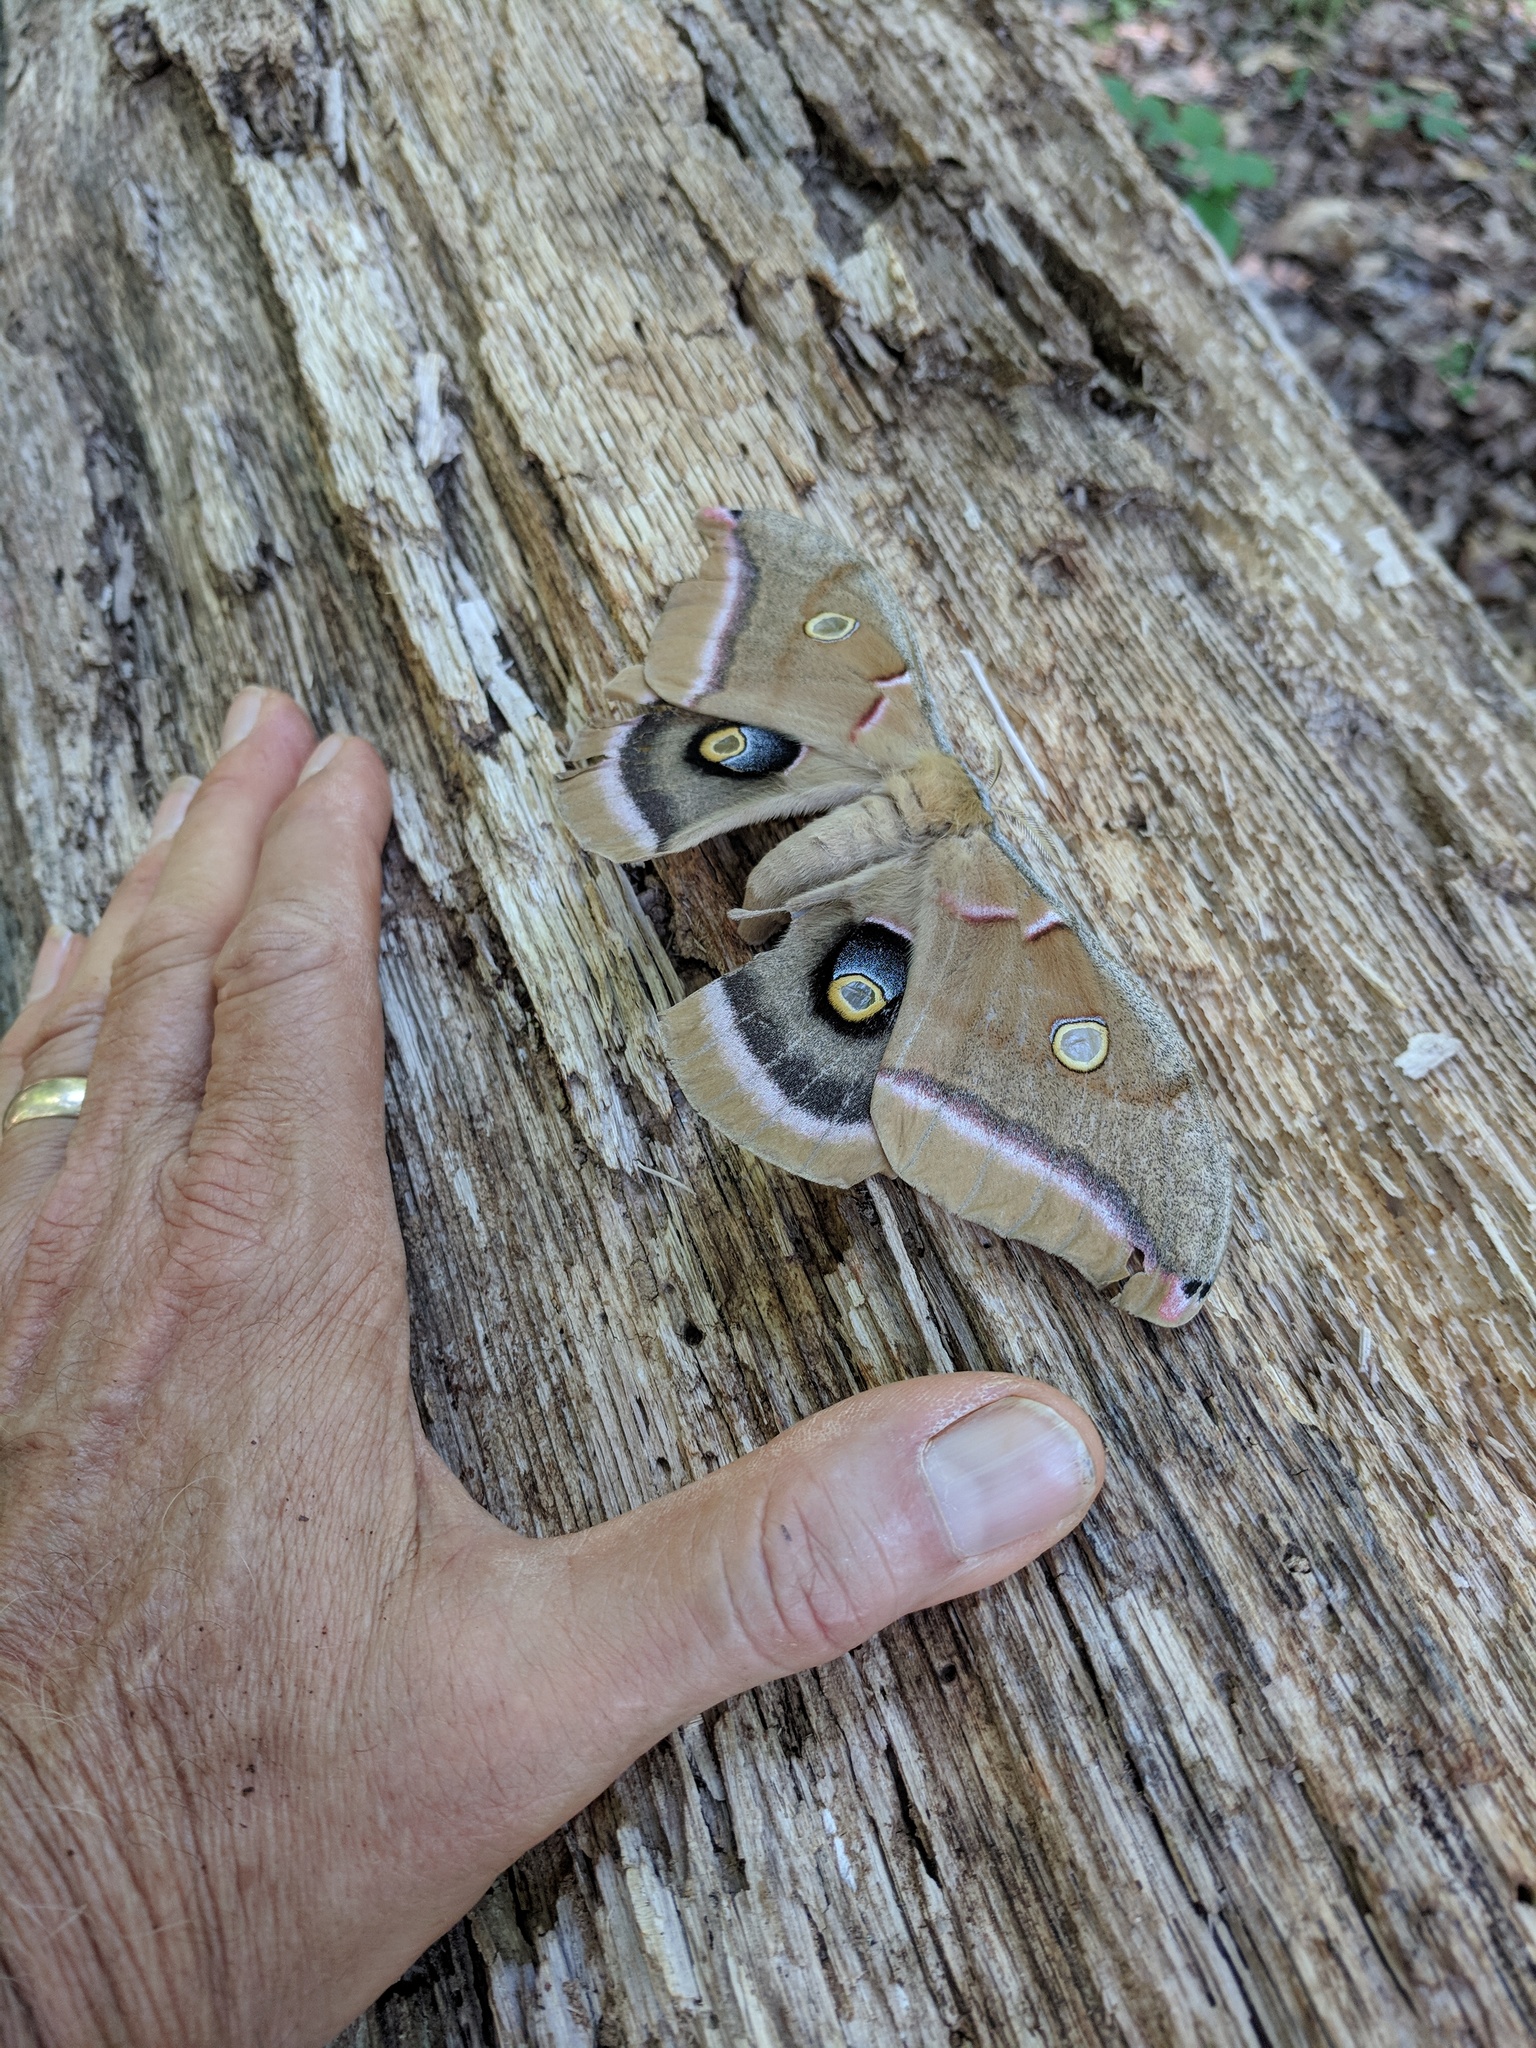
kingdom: Animalia
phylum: Arthropoda
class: Insecta
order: Lepidoptera
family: Saturniidae
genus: Antheraea
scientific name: Antheraea polyphemus
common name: Polyphemus moth
